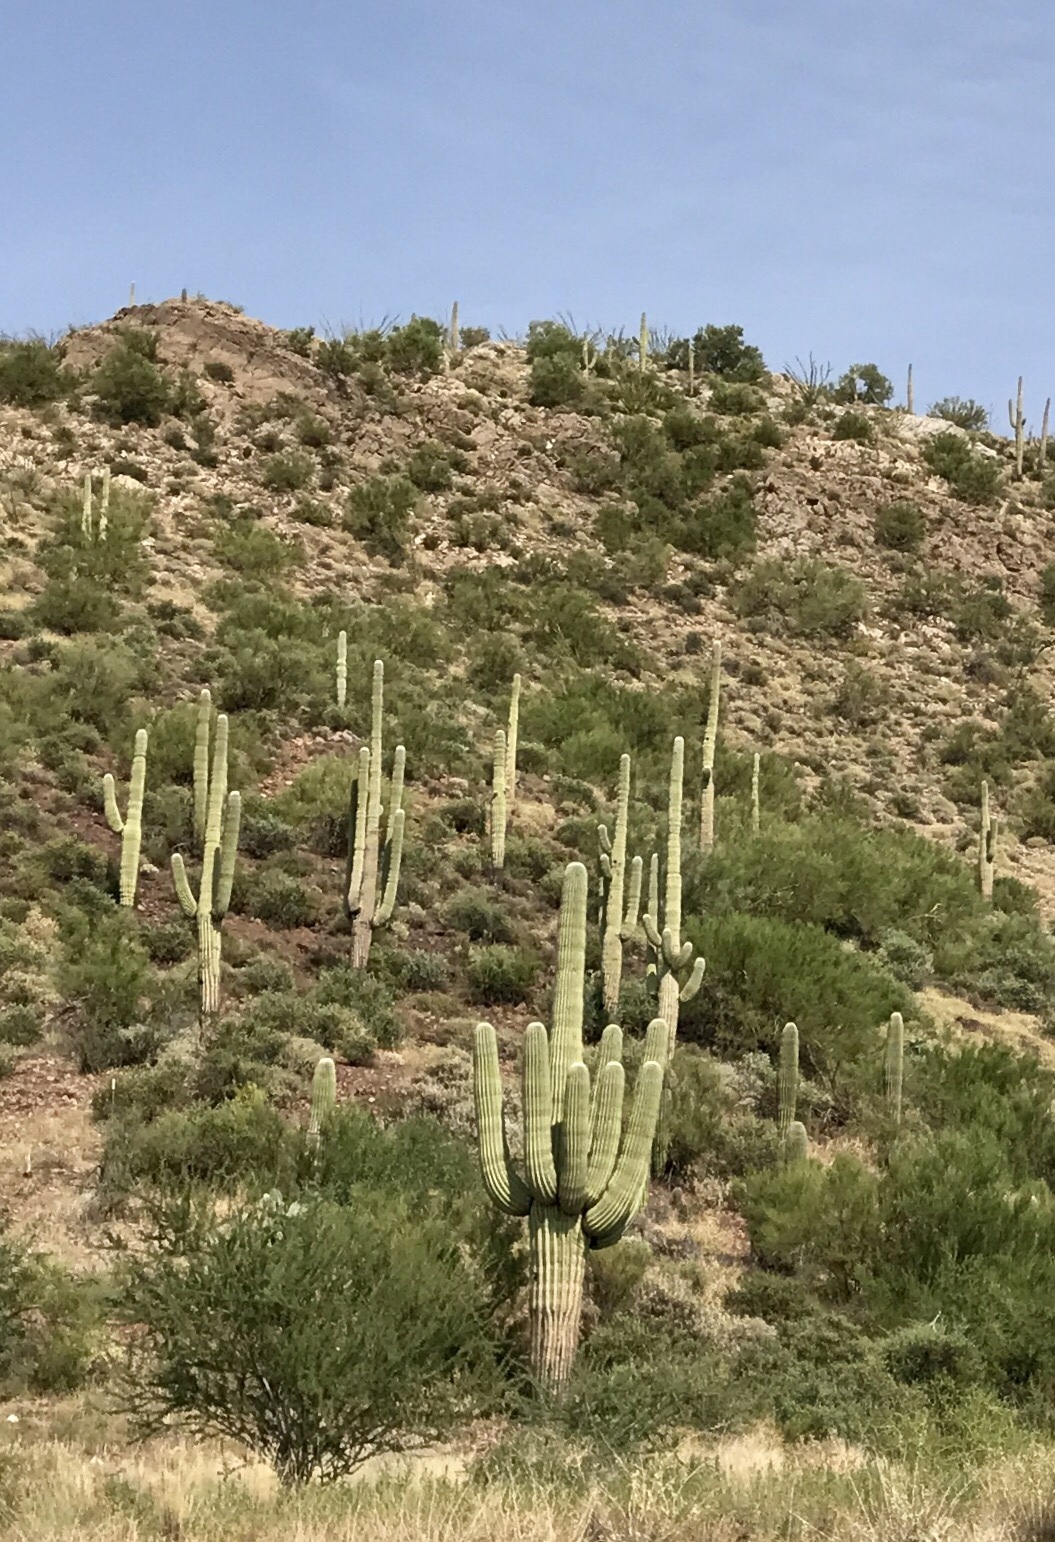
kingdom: Plantae
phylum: Tracheophyta
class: Magnoliopsida
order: Caryophyllales
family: Cactaceae
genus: Carnegiea
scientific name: Carnegiea gigantea
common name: Saguaro
